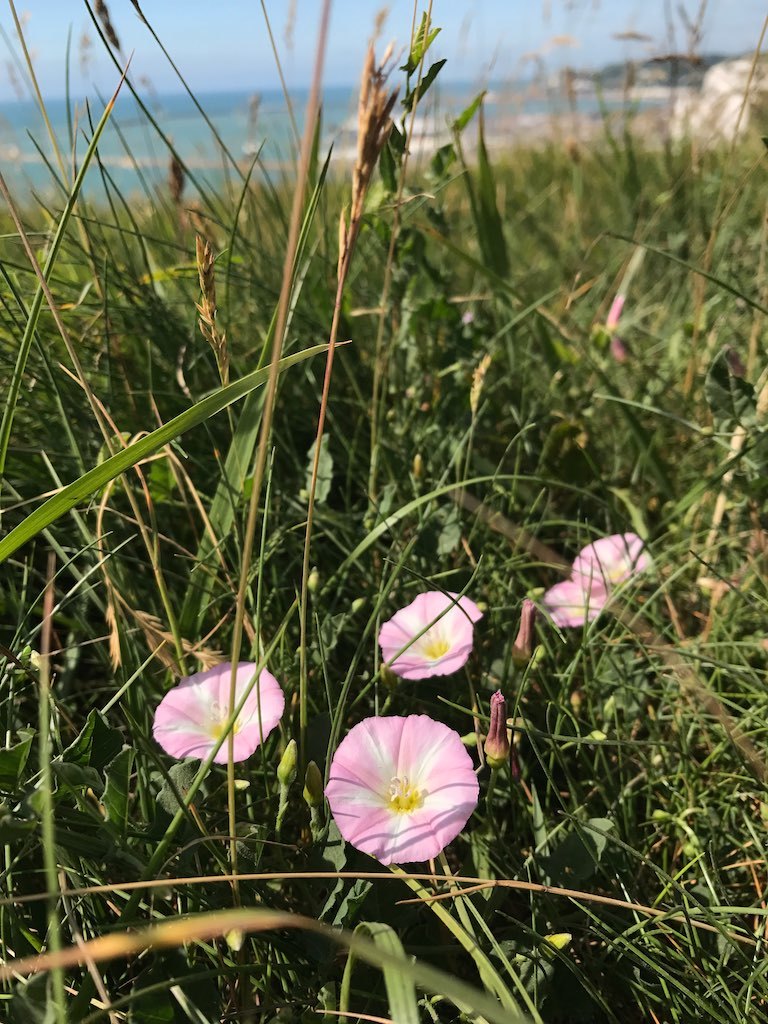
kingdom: Plantae
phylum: Tracheophyta
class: Magnoliopsida
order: Solanales
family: Convolvulaceae
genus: Convolvulus
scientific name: Convolvulus arvensis
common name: Field bindweed
